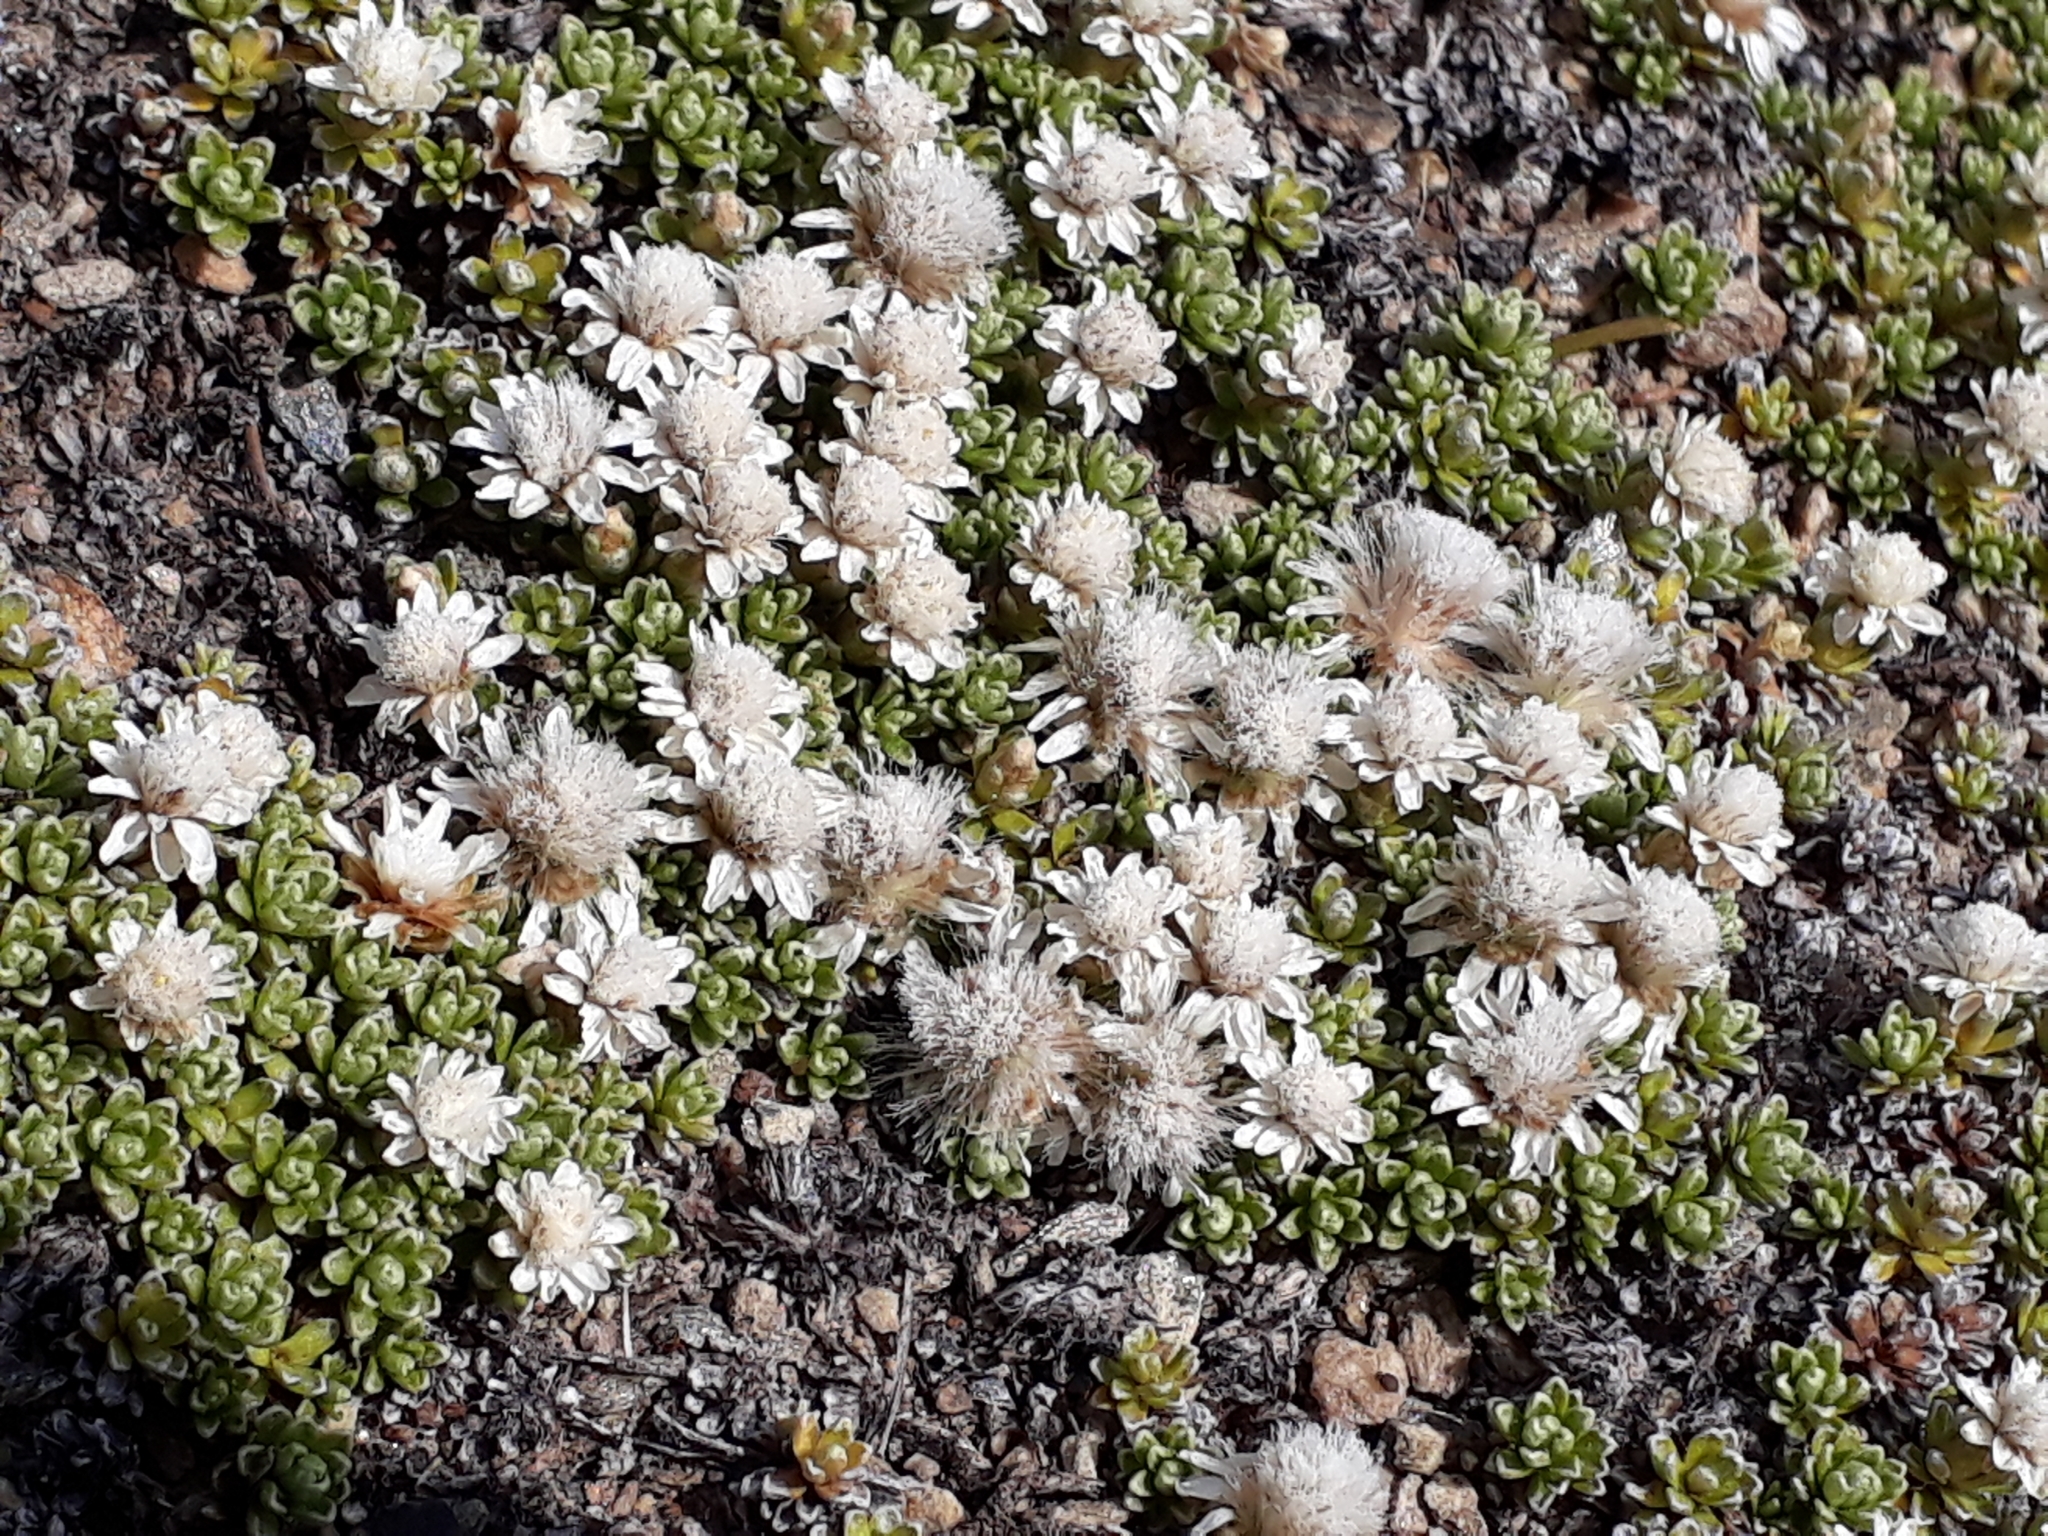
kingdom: Plantae
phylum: Tracheophyta
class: Magnoliopsida
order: Asterales
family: Asteraceae
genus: Raoulia
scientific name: Raoulia subsericea
